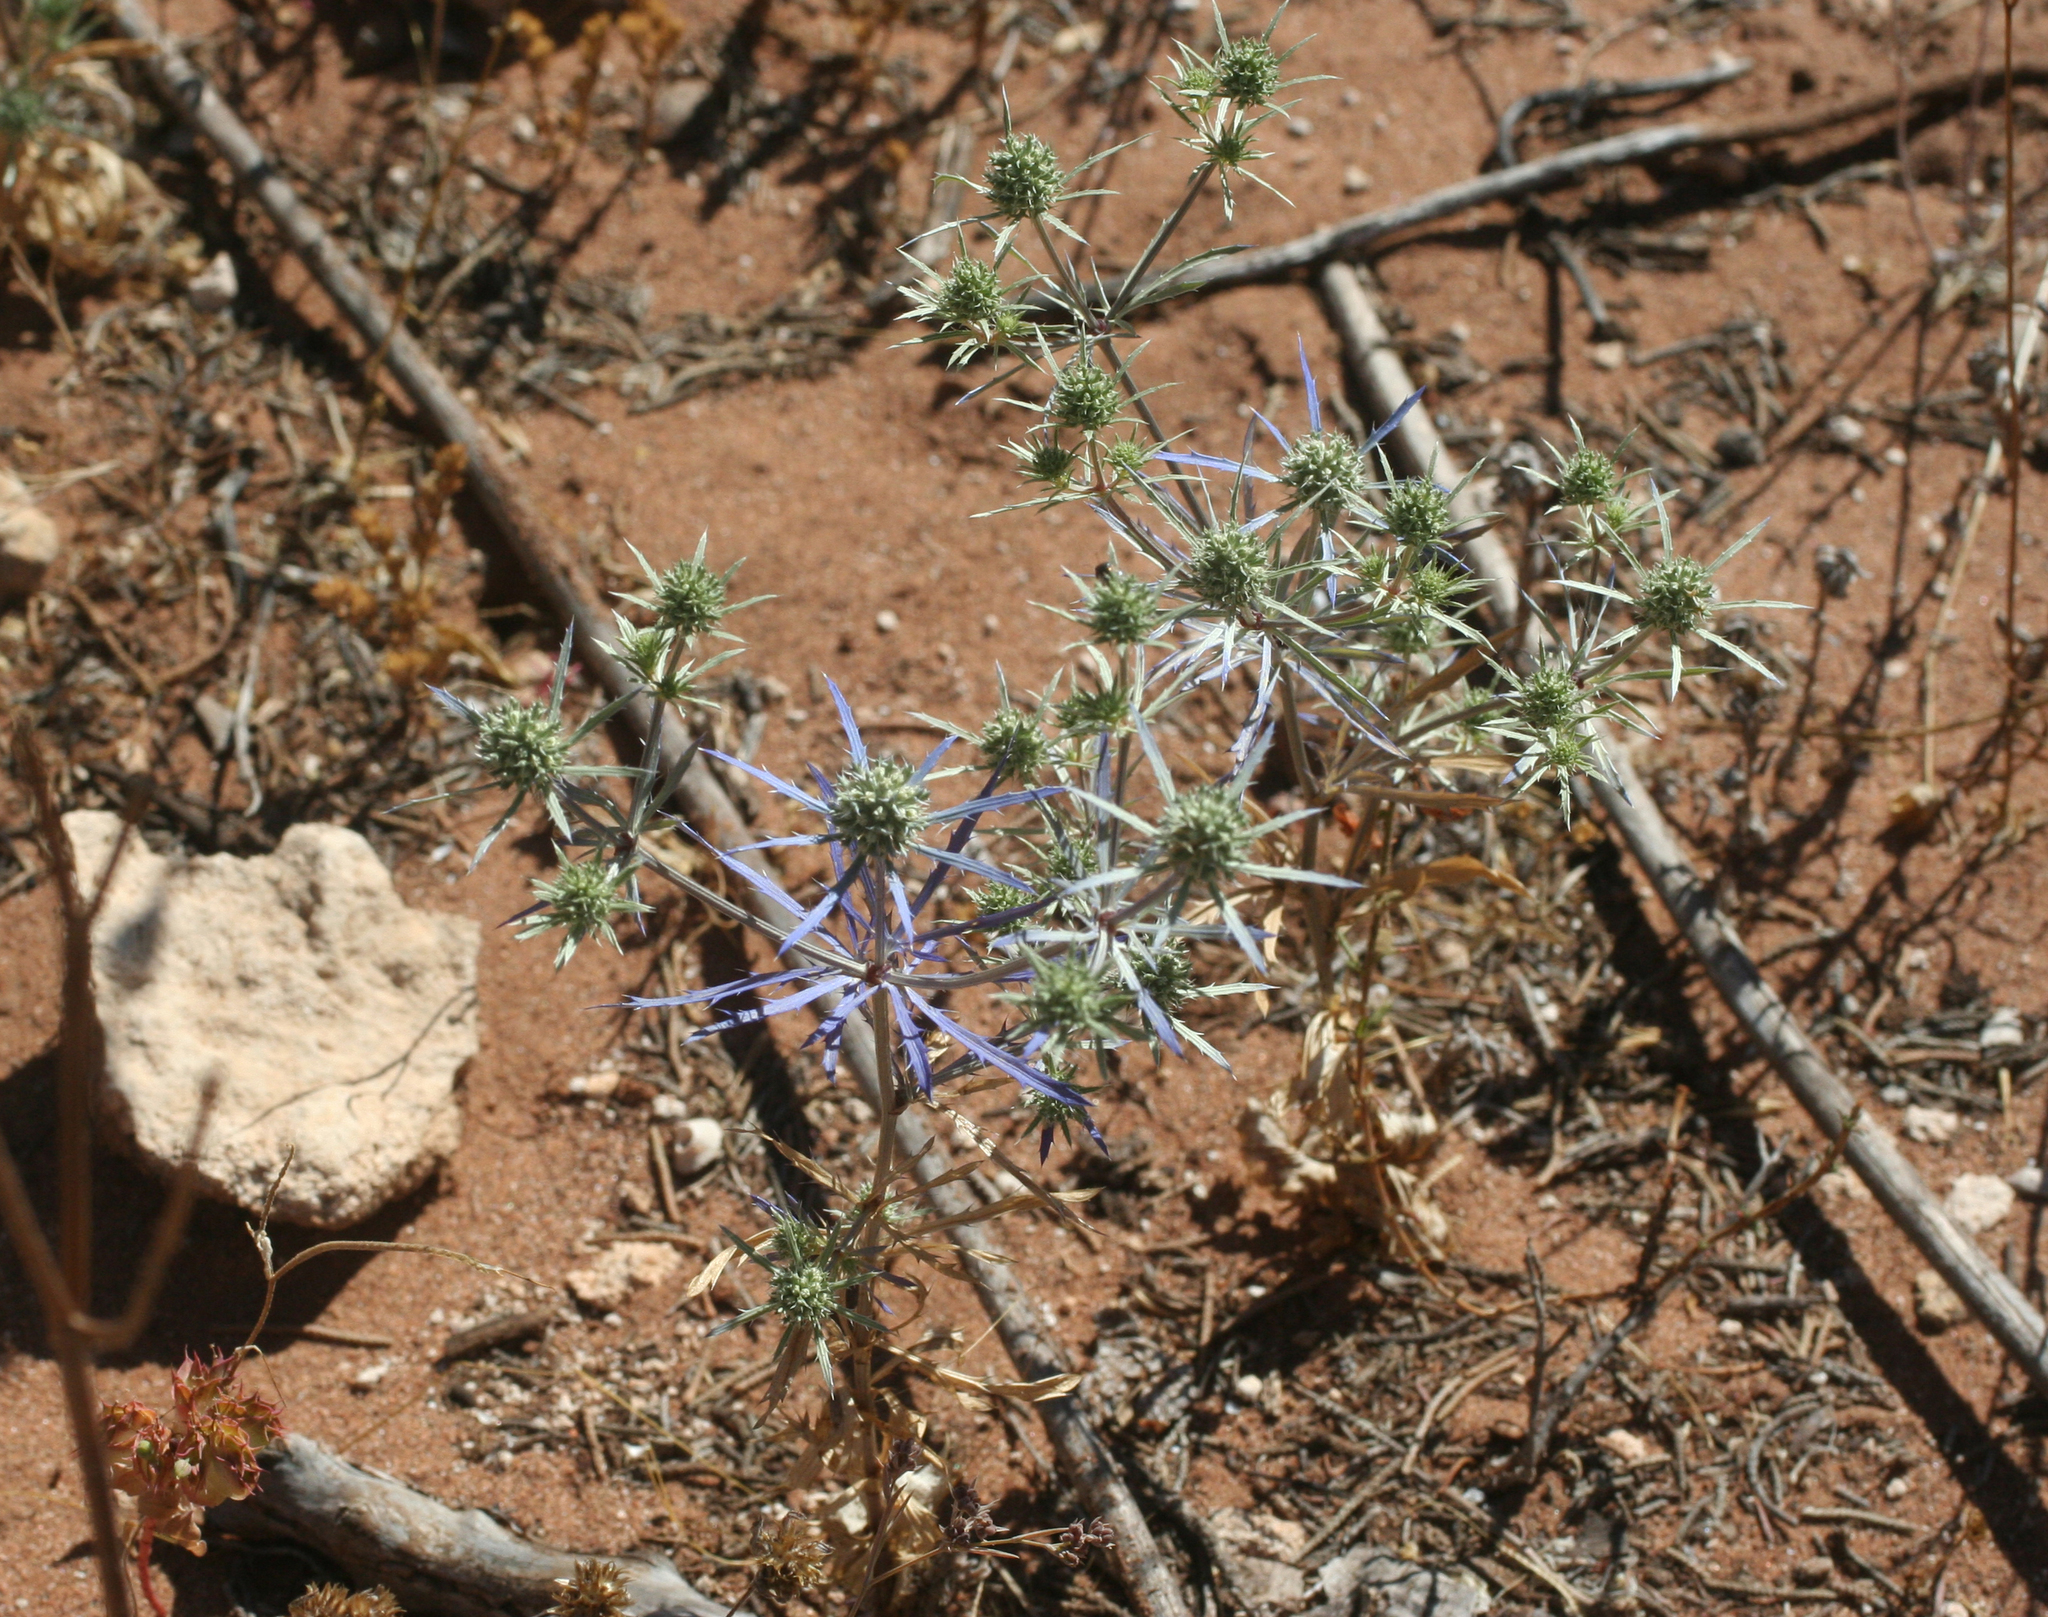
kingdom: Plantae
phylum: Tracheophyta
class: Magnoliopsida
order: Apiales
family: Apiaceae
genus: Eryngium
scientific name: Eryngium tenue
